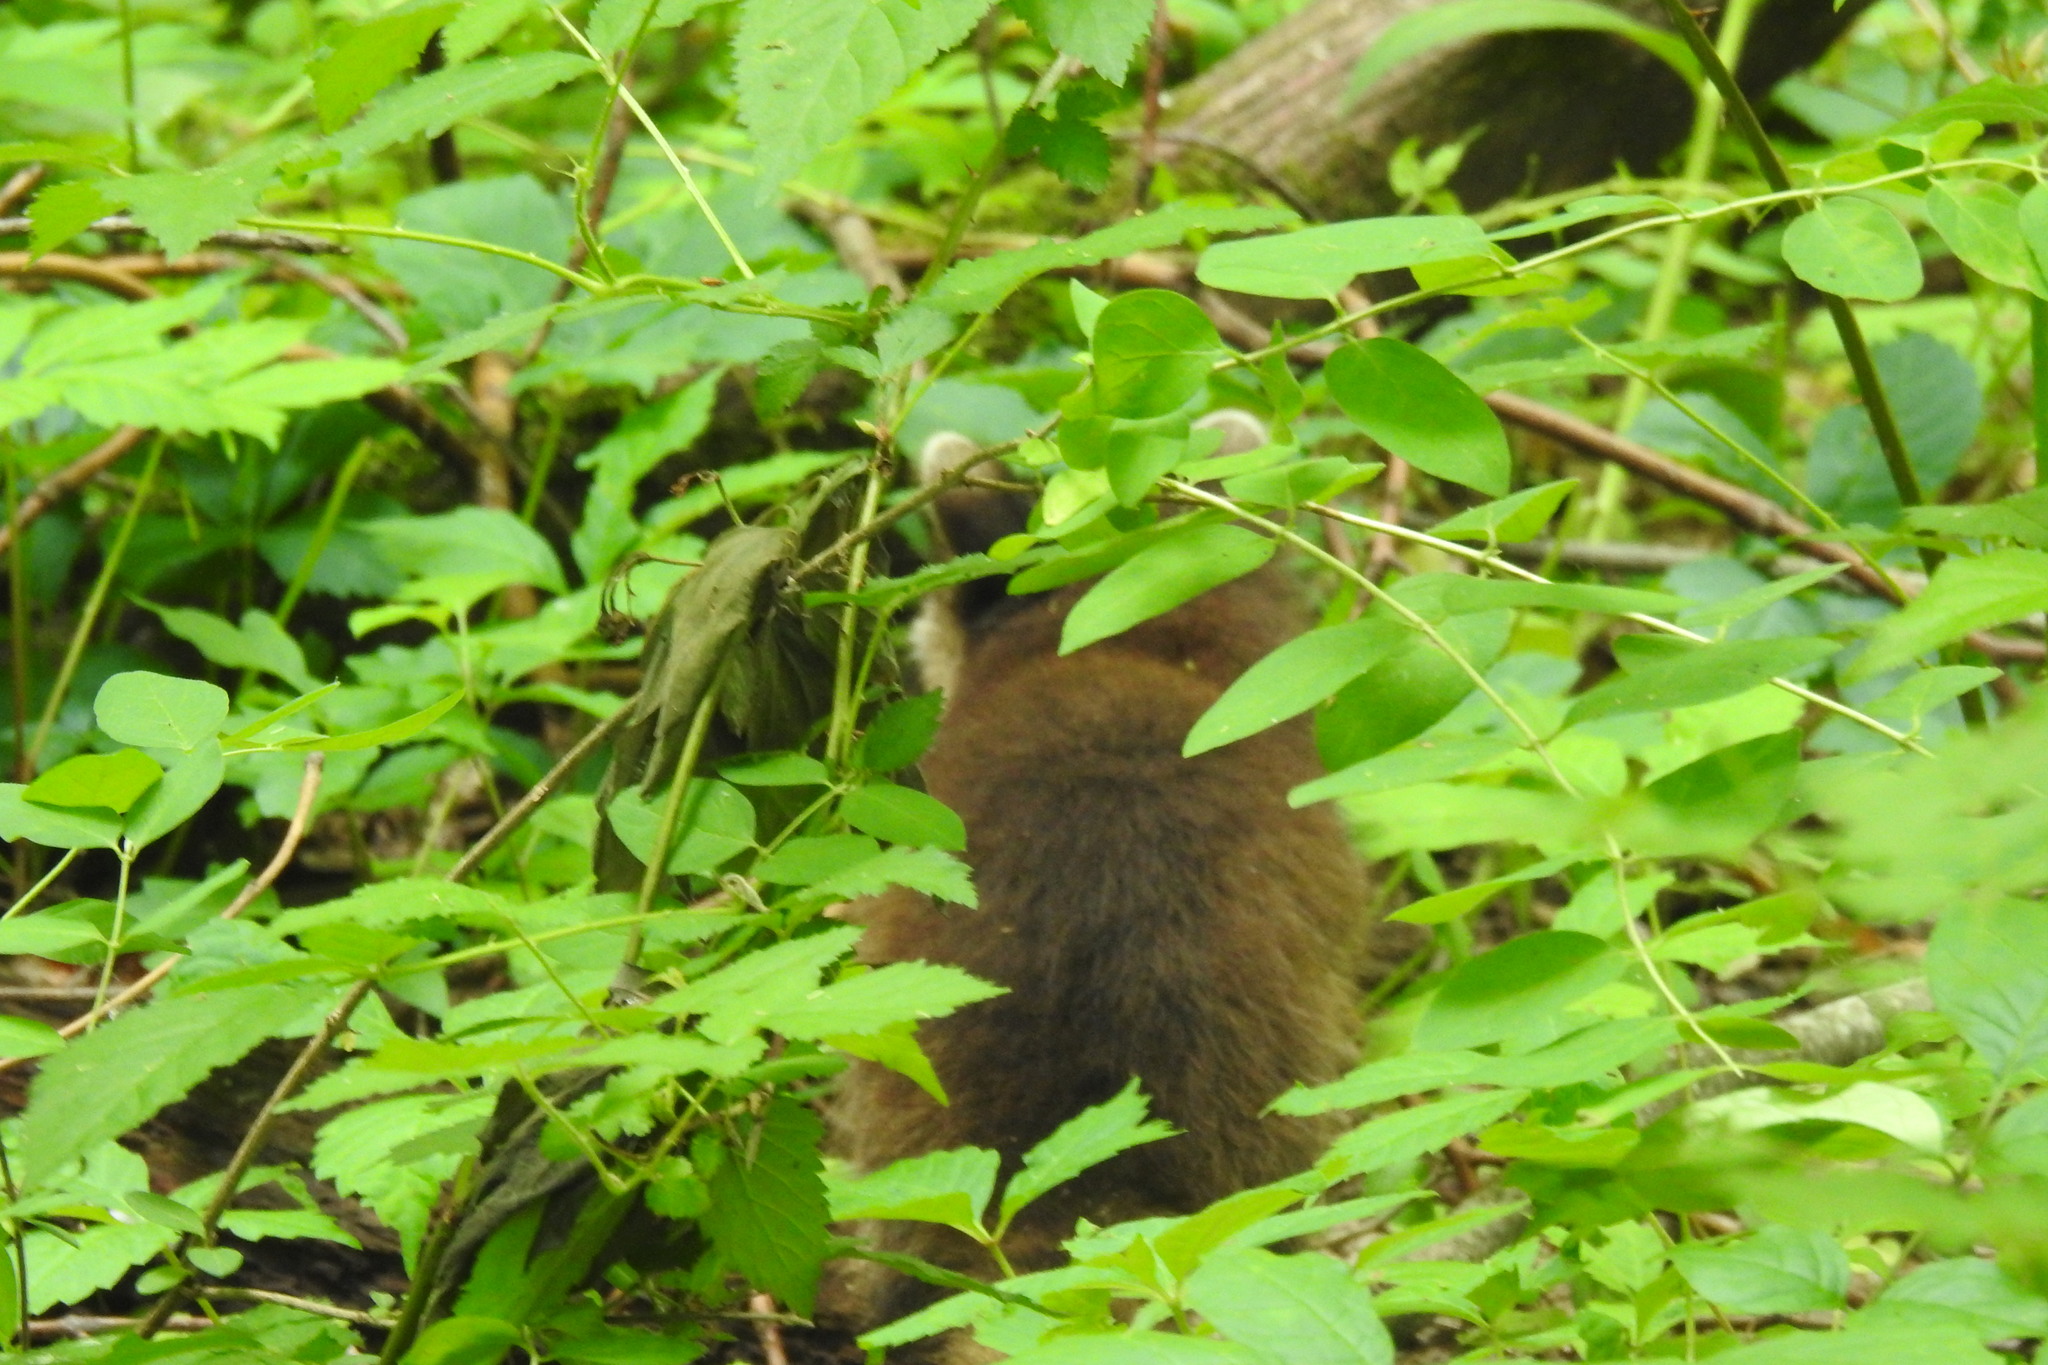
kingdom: Animalia
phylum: Chordata
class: Mammalia
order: Carnivora
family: Procyonidae
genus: Procyon
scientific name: Procyon lotor
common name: Raccoon
